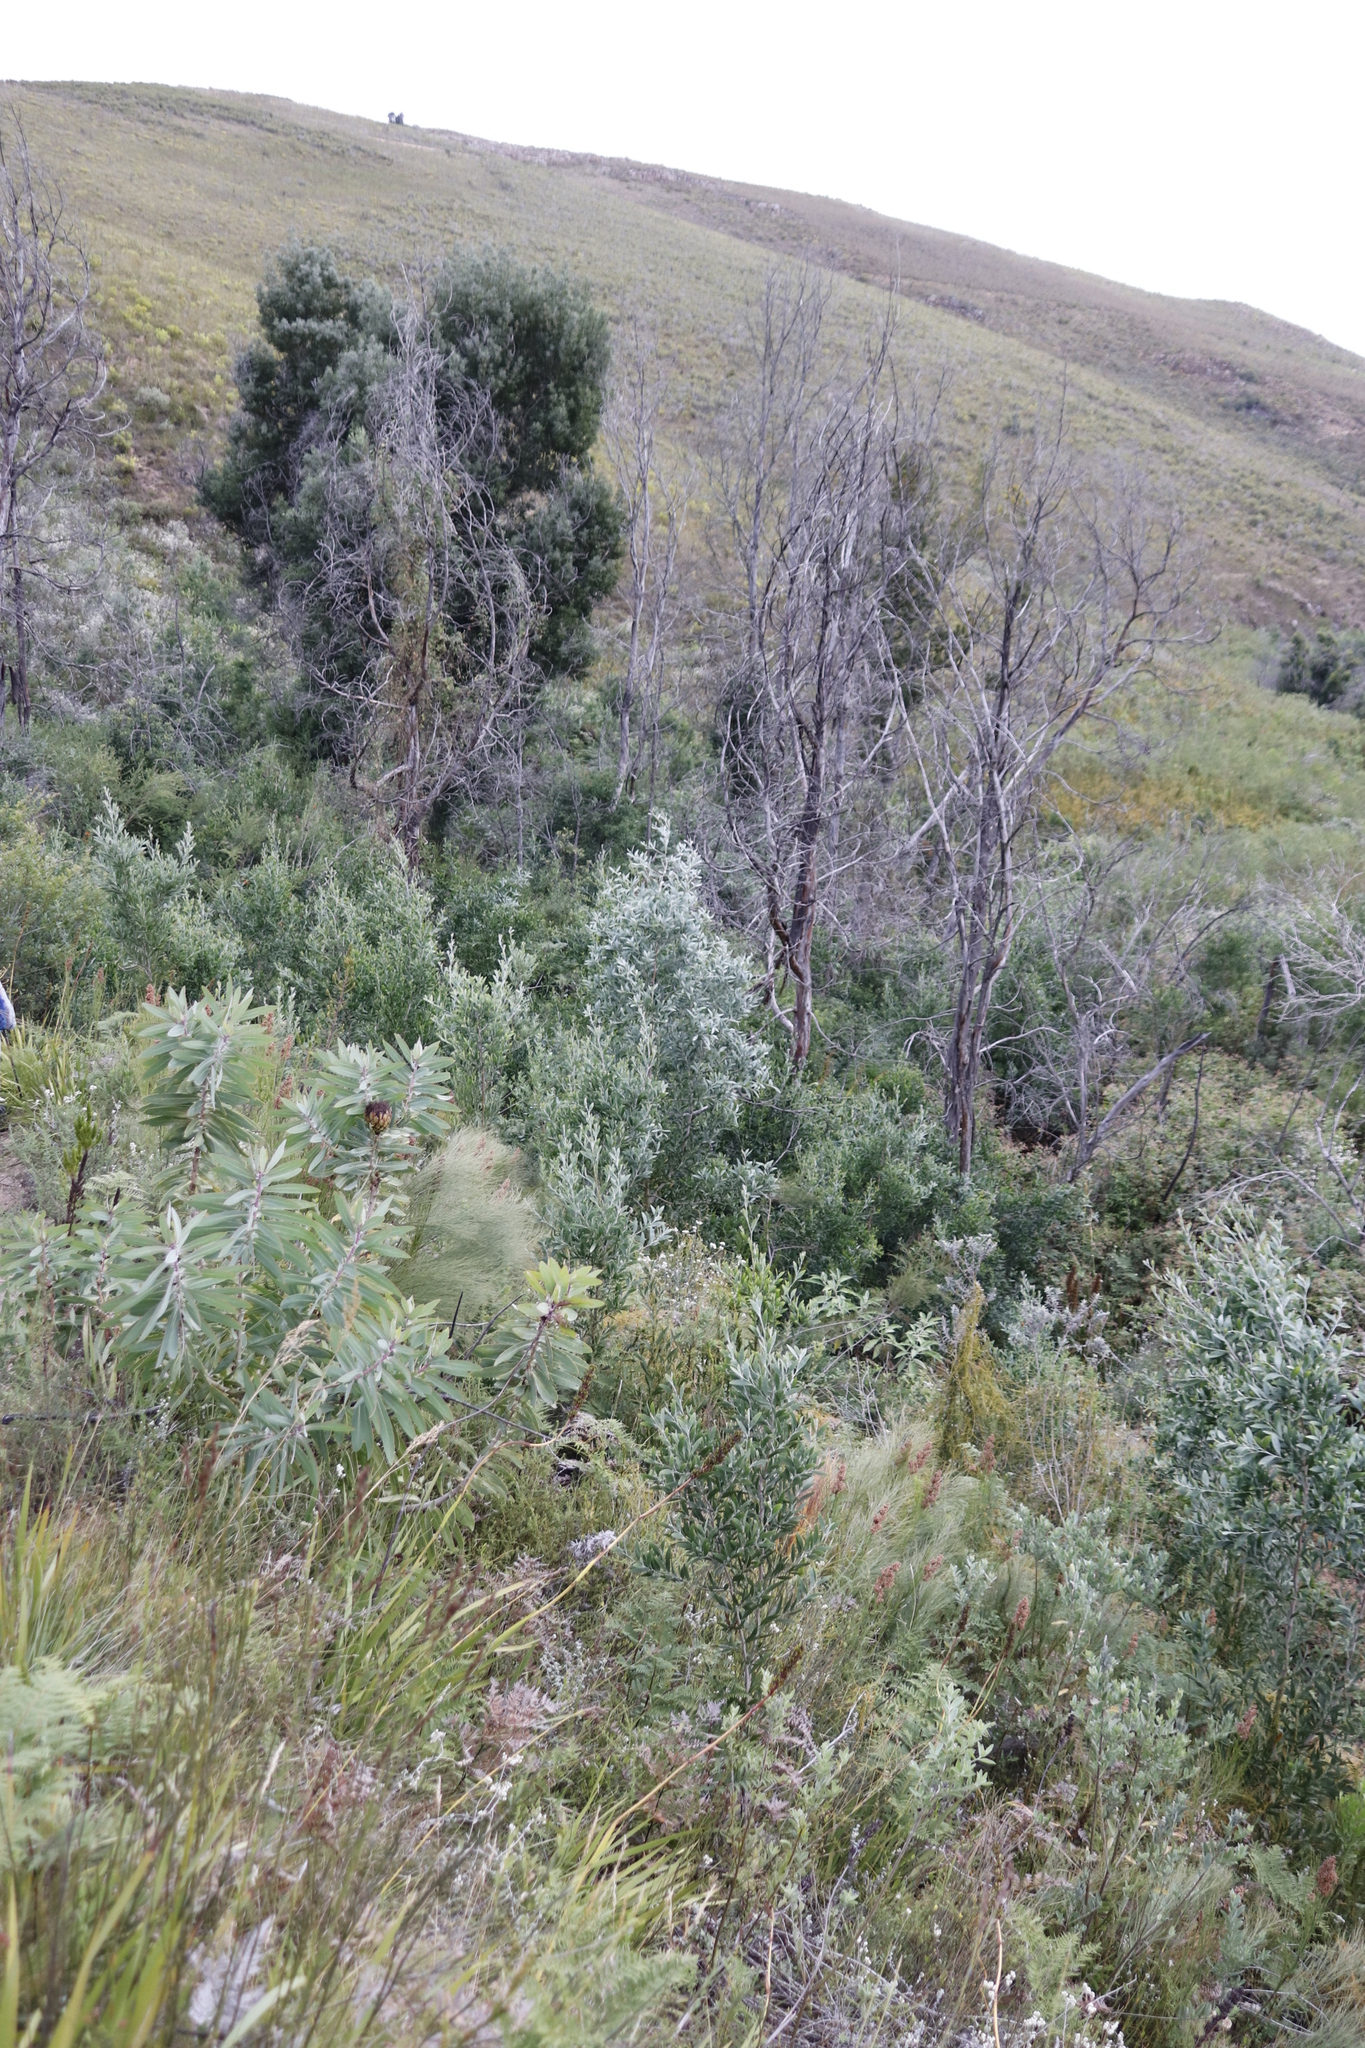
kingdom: Plantae
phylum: Tracheophyta
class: Magnoliopsida
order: Fabales
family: Fabaceae
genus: Acacia
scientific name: Acacia melanoxylon
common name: Blackwood
